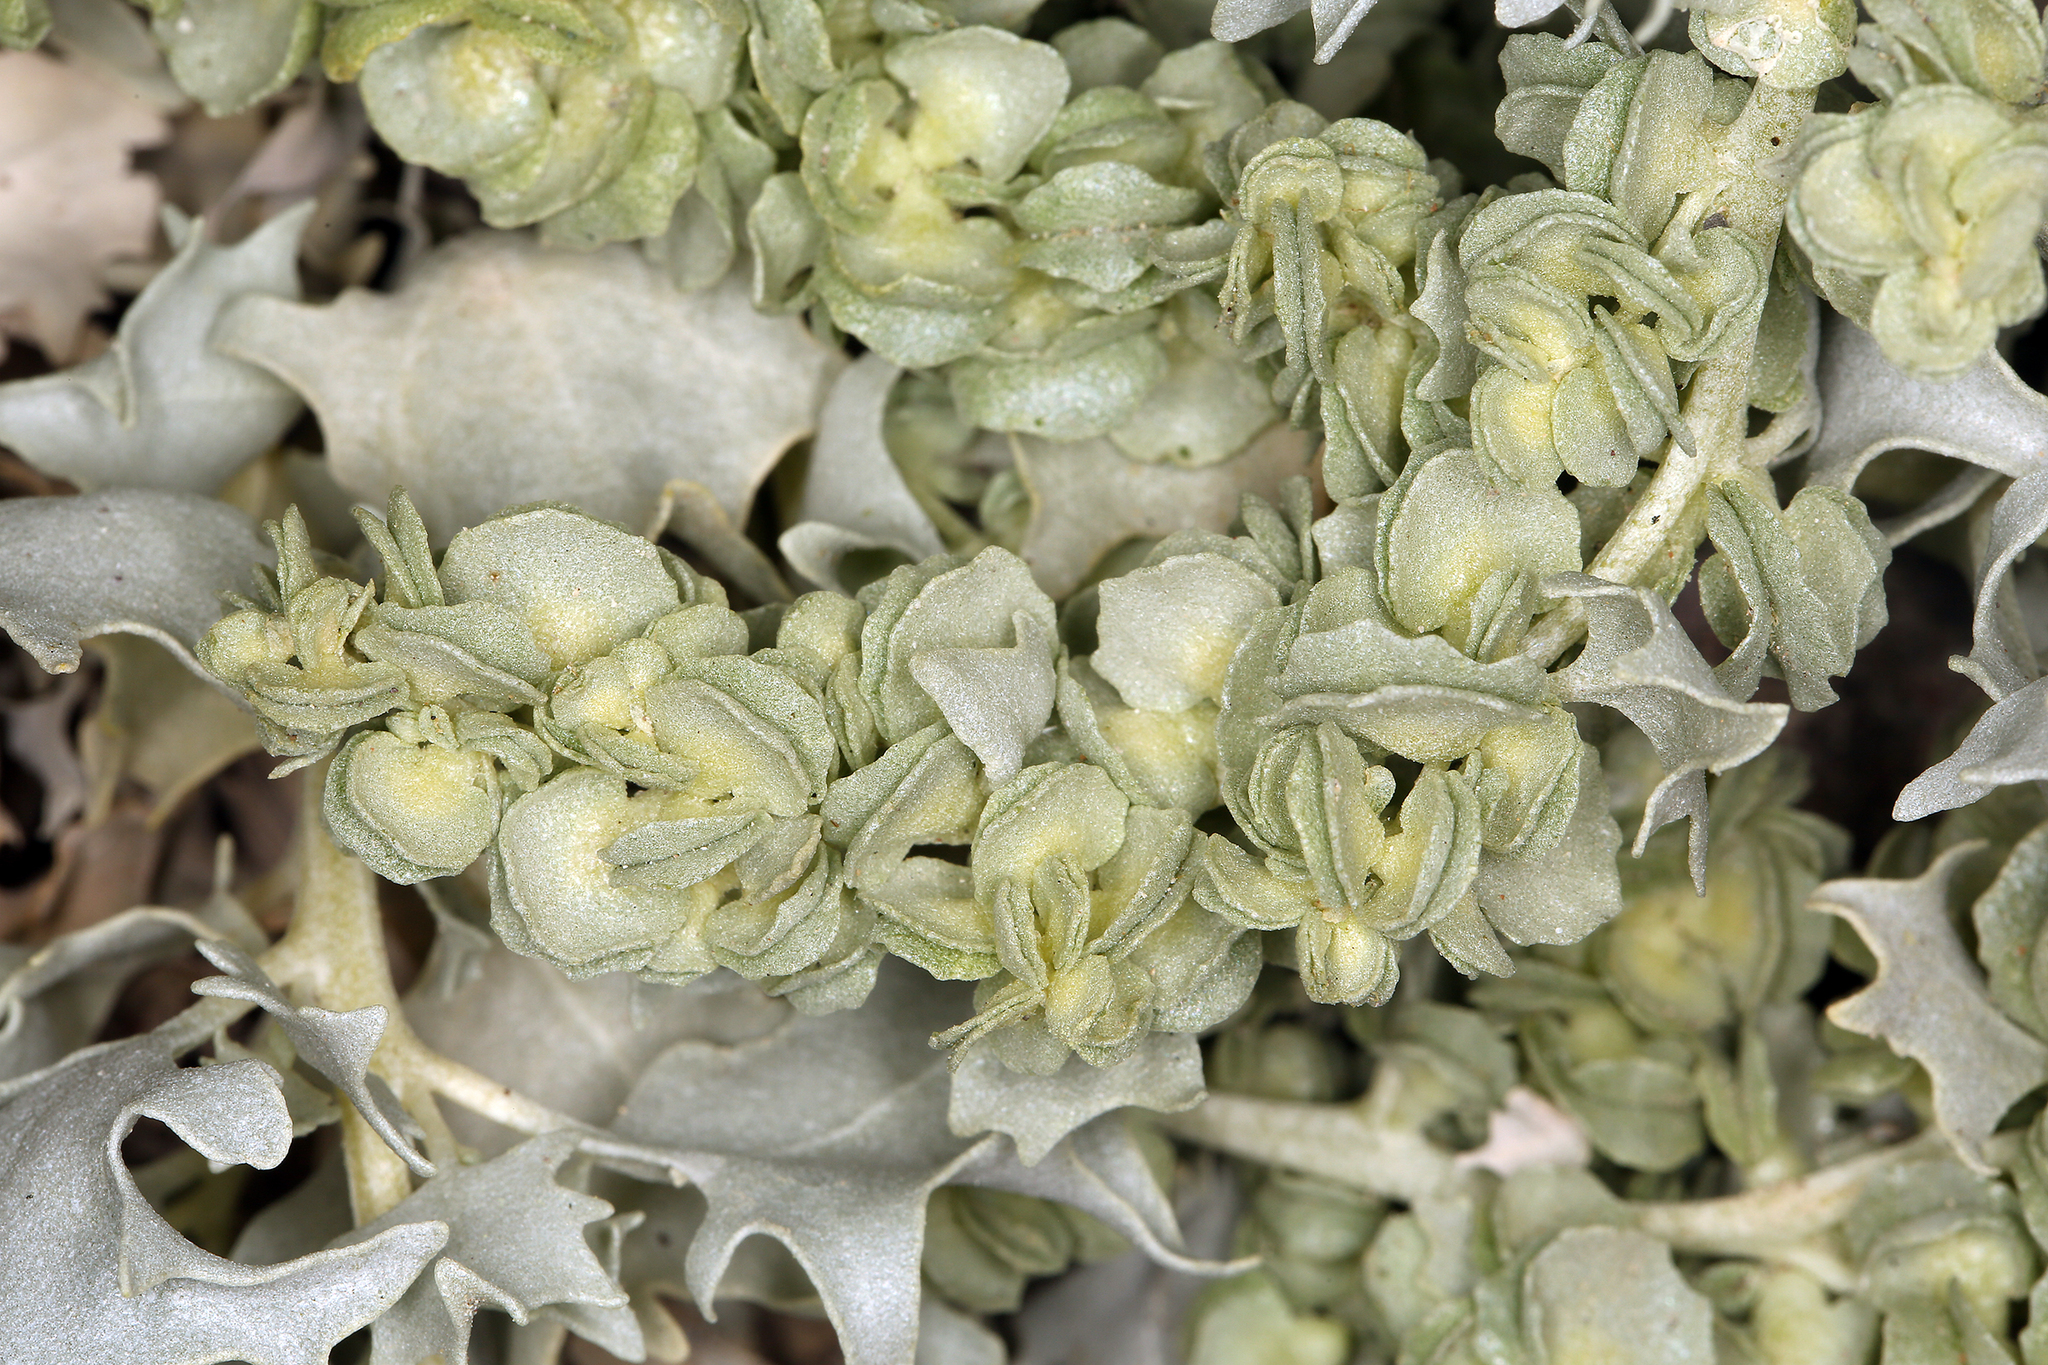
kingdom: Plantae
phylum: Tracheophyta
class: Magnoliopsida
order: Caryophyllales
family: Amaranthaceae
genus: Atriplex
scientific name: Atriplex hymenelytra
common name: Desert-holly
